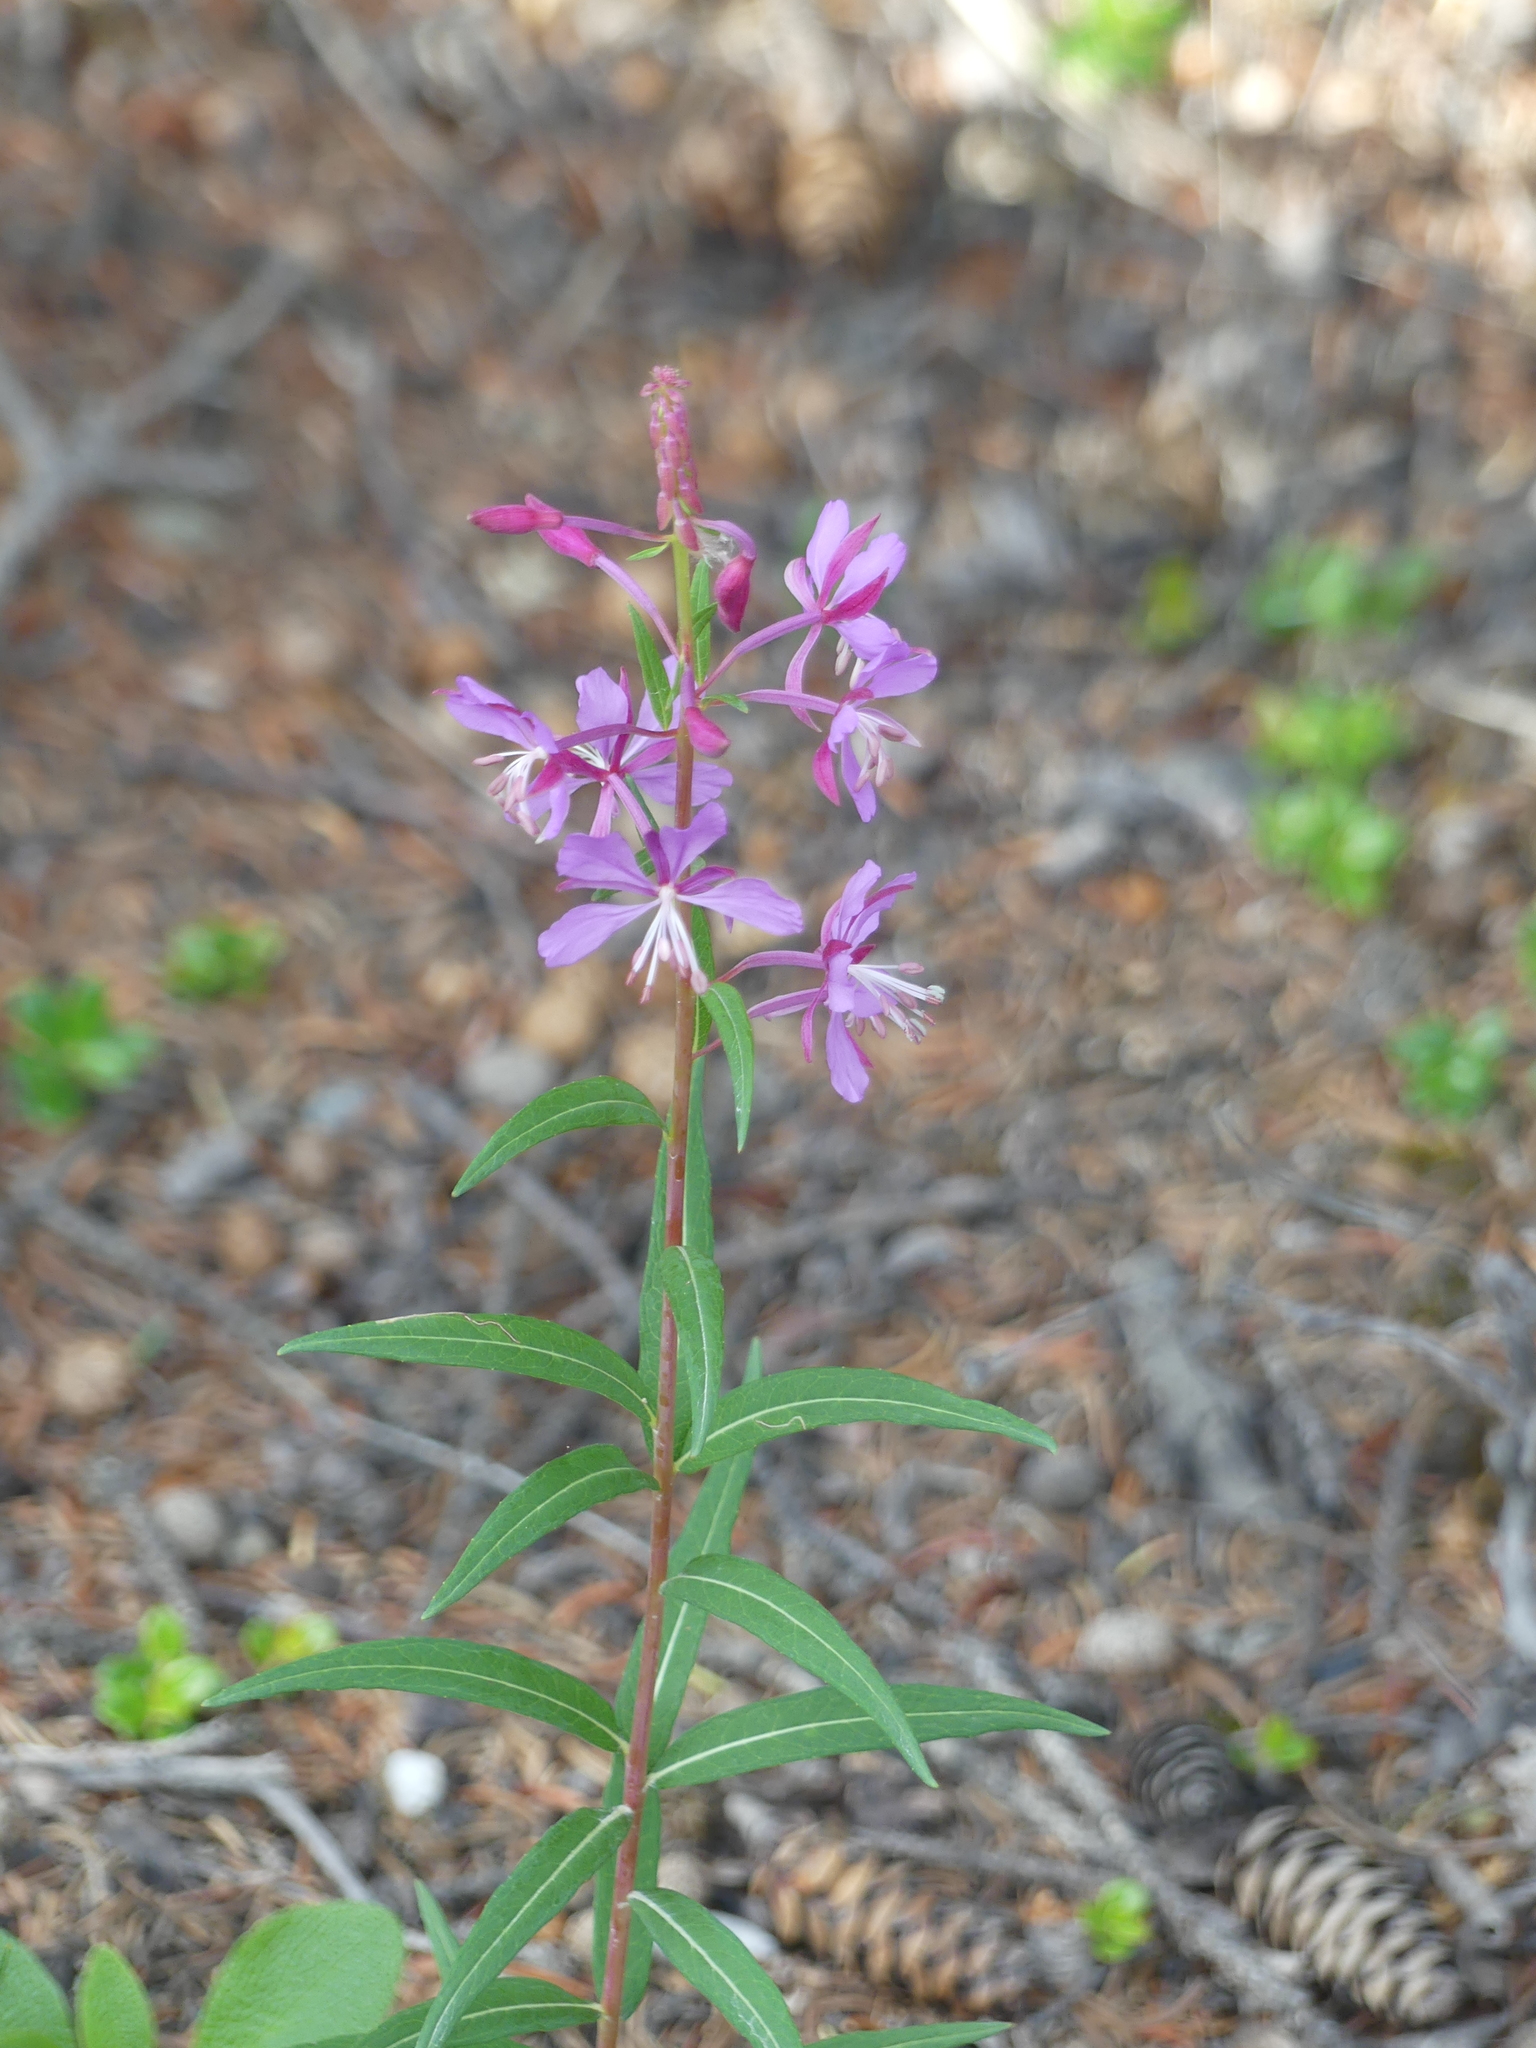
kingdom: Plantae
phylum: Tracheophyta
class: Magnoliopsida
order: Myrtales
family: Onagraceae
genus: Chamaenerion
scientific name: Chamaenerion angustifolium
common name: Fireweed
